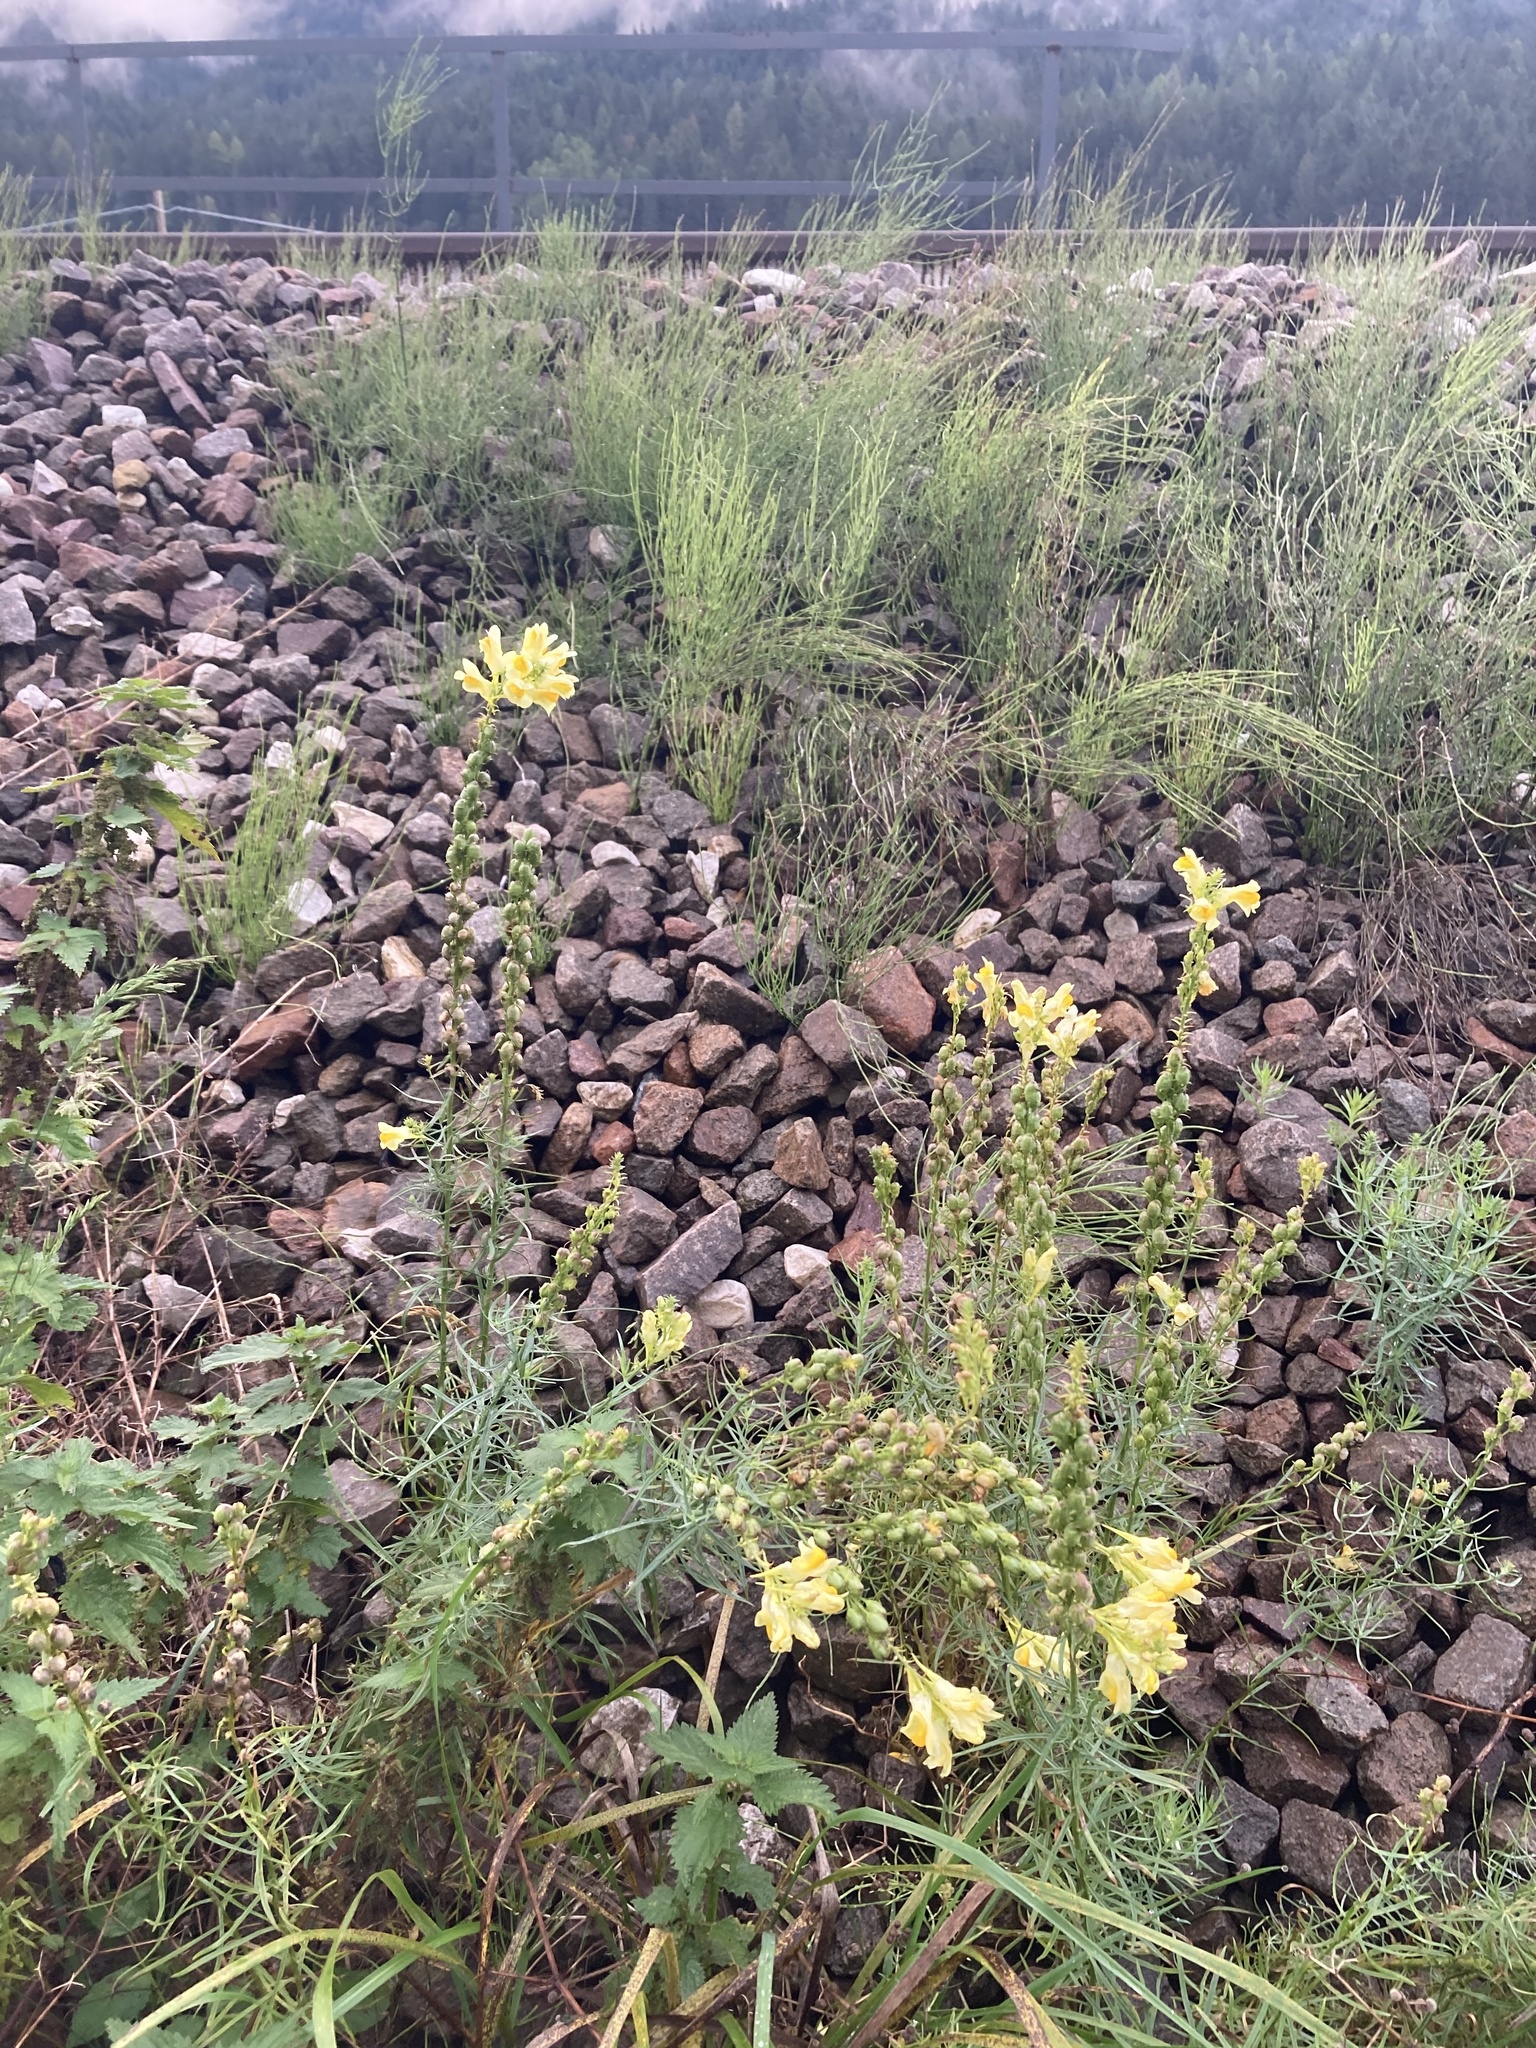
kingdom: Plantae
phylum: Tracheophyta
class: Magnoliopsida
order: Lamiales
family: Plantaginaceae
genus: Linaria
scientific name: Linaria vulgaris
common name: Butter and eggs
